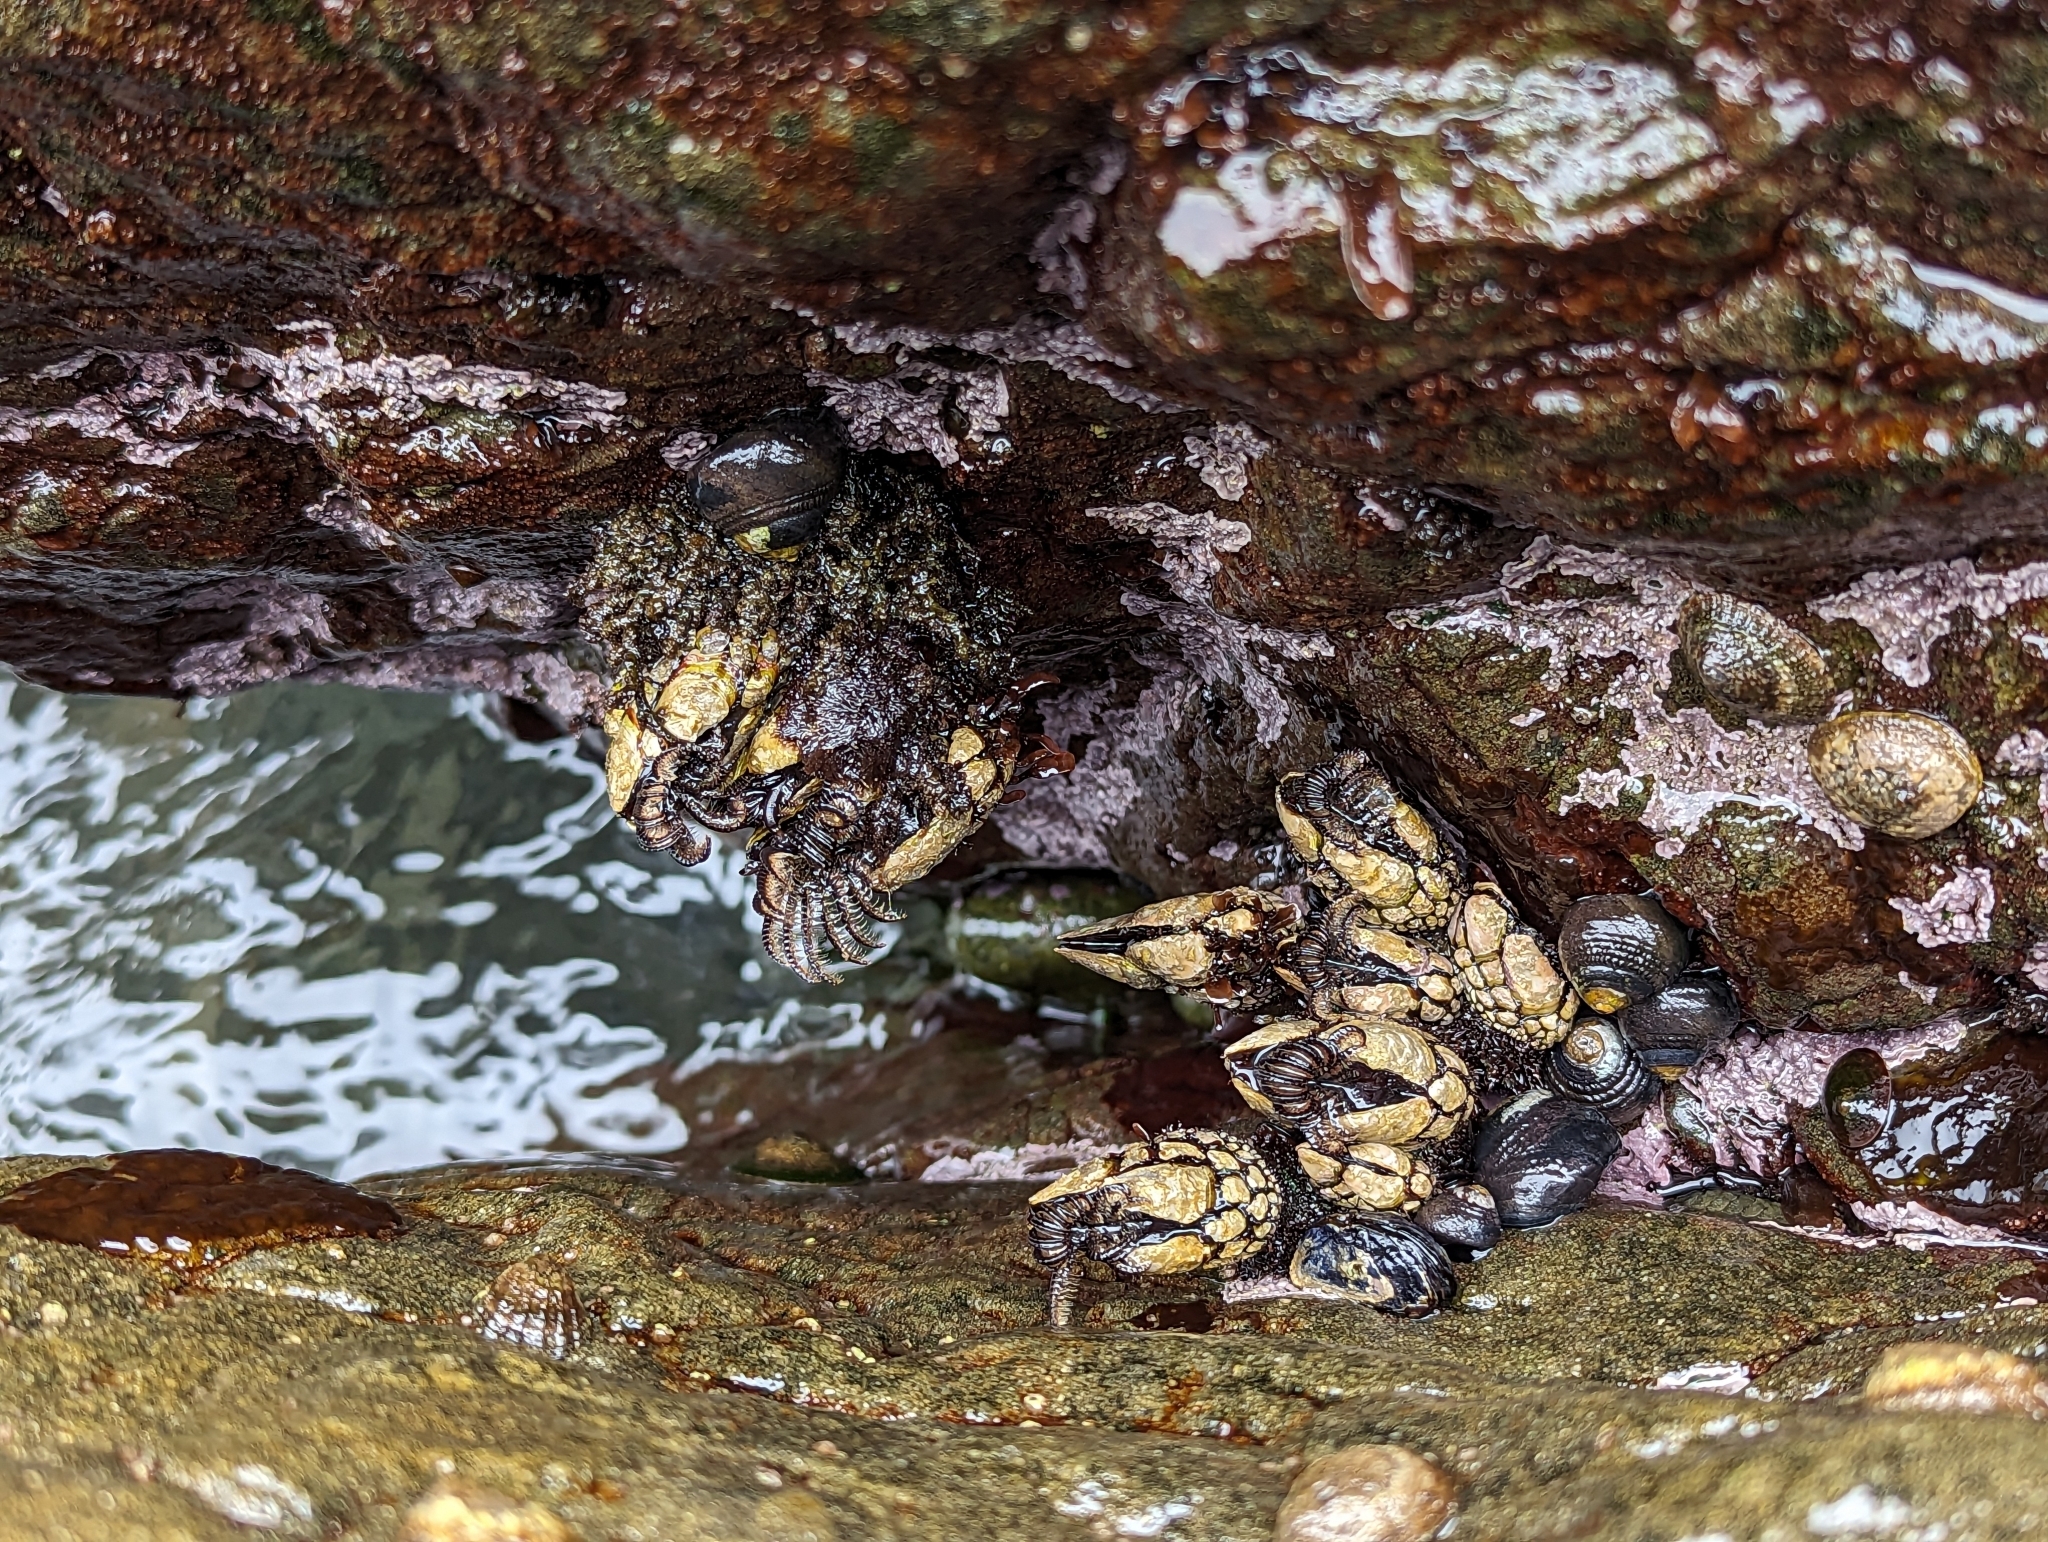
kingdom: Animalia
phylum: Arthropoda
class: Maxillopoda
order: Pedunculata
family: Pollicipedidae
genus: Pollicipes
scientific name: Pollicipes polymerus
